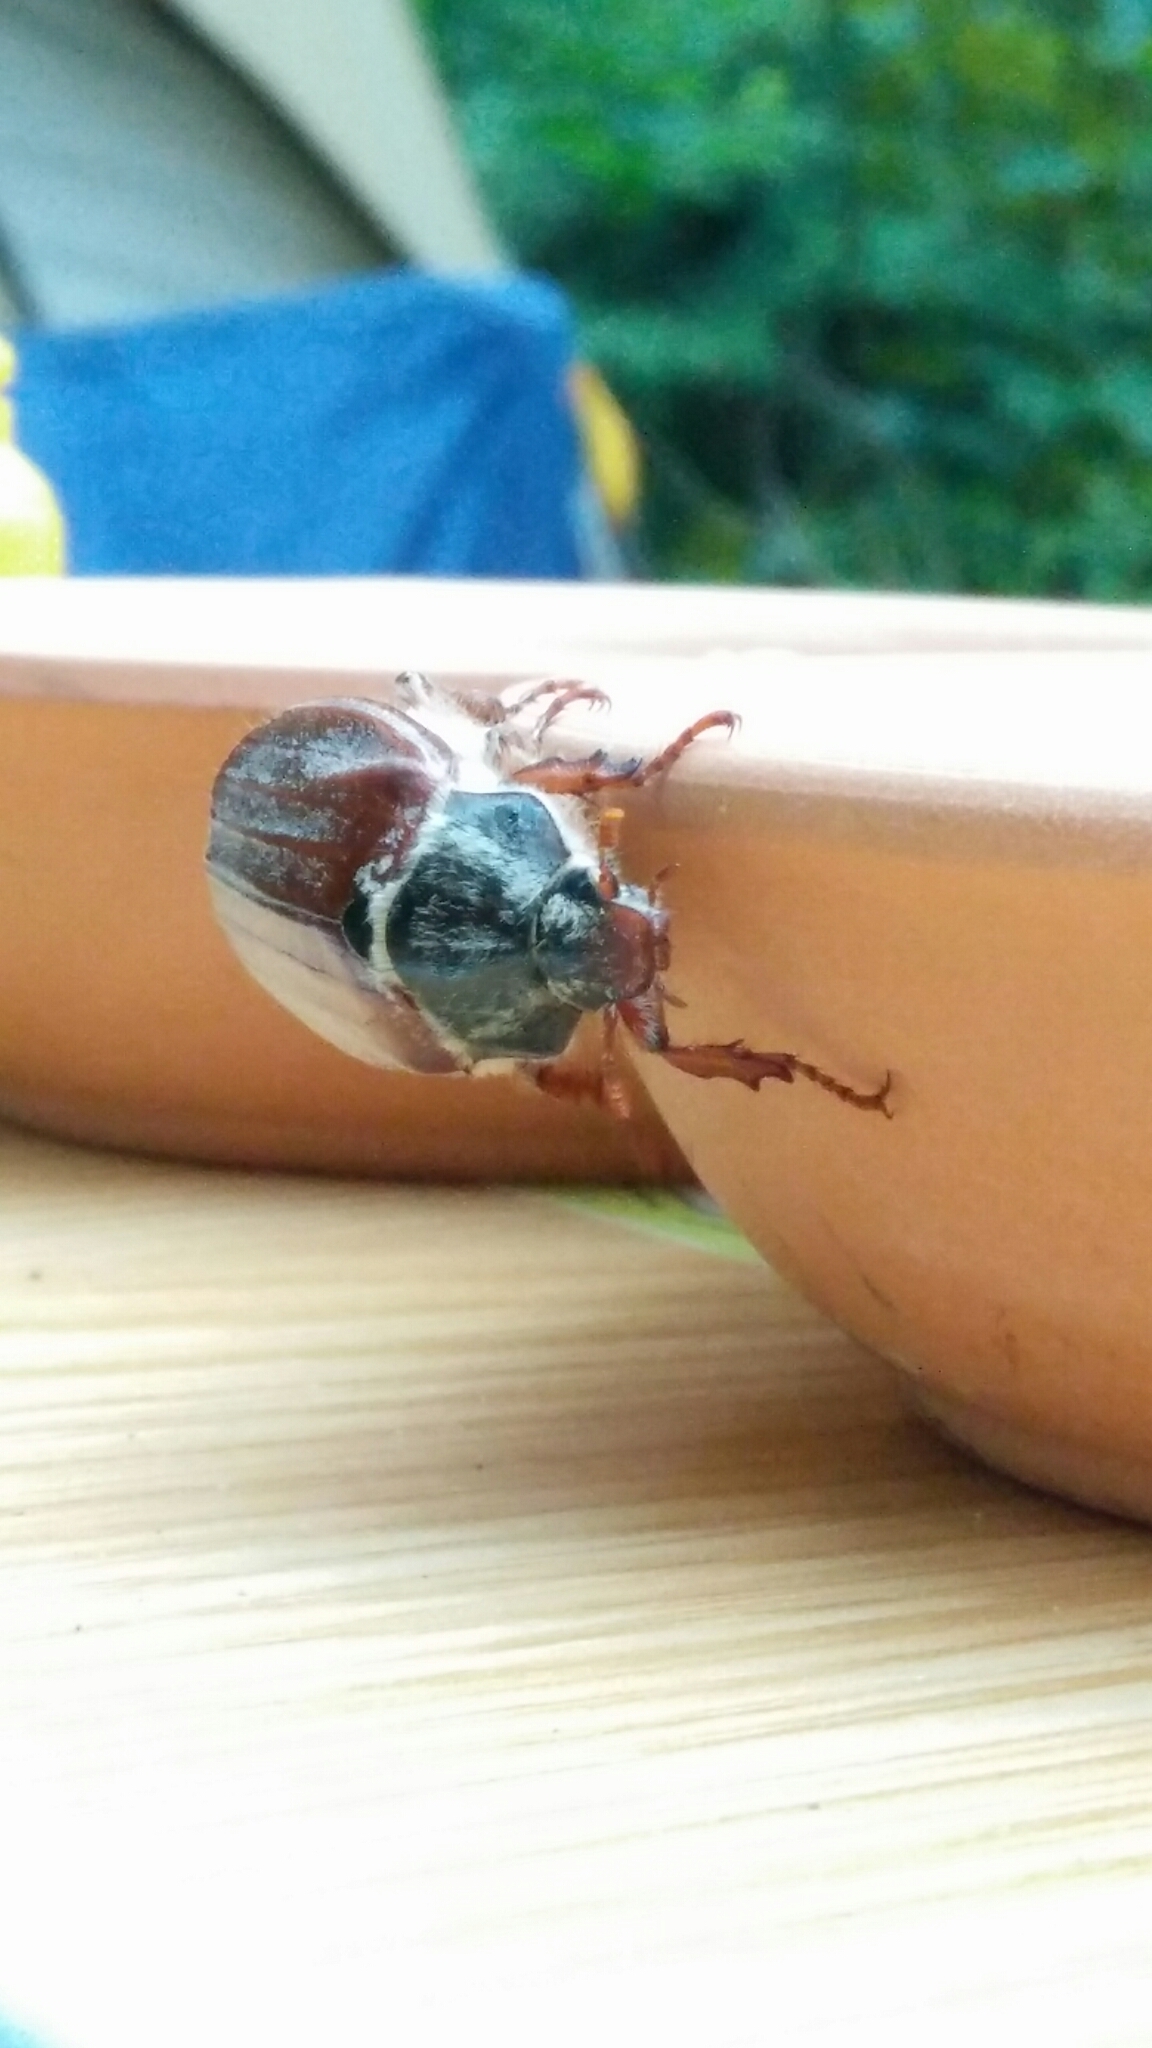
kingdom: Animalia
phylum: Arthropoda
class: Insecta
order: Coleoptera
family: Scarabaeidae
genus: Melolontha
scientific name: Melolontha melolontha
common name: Cockchafer maybeetle
